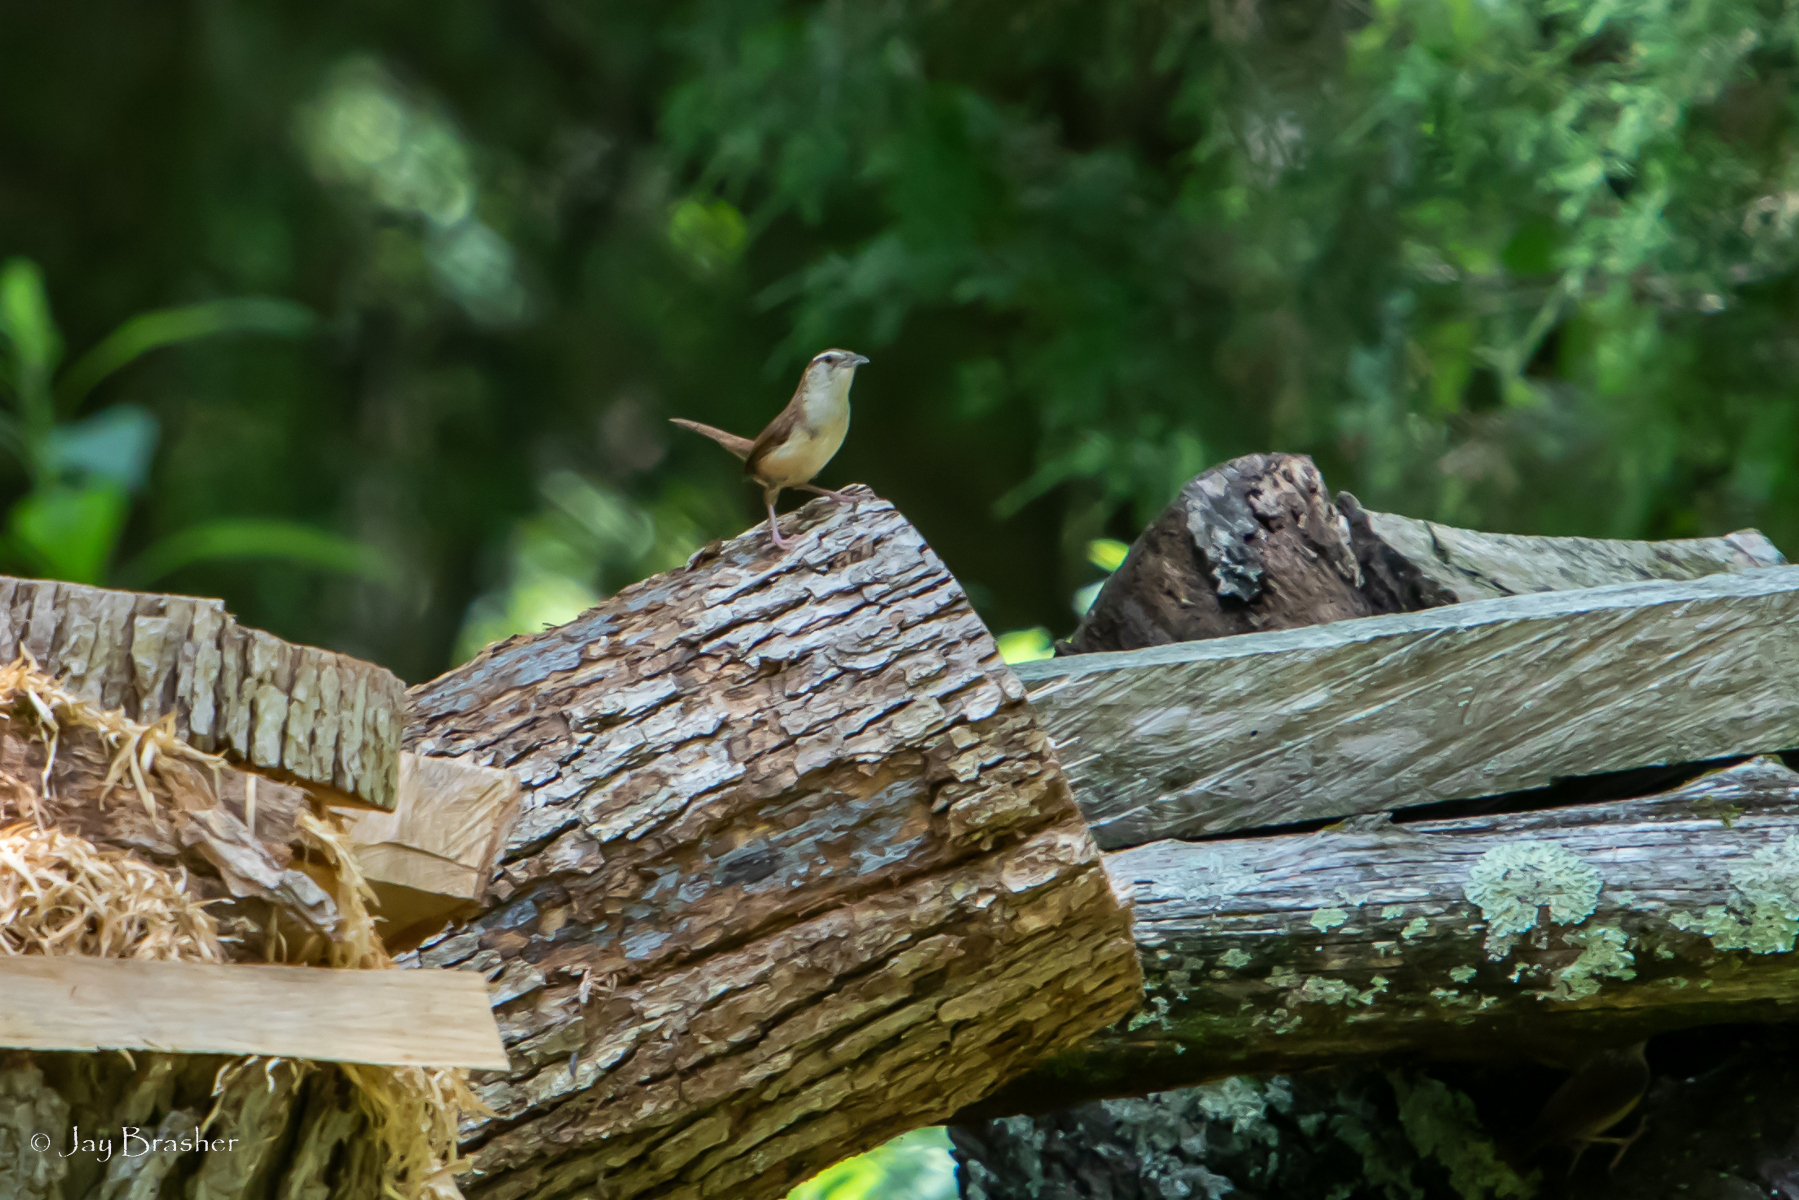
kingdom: Animalia
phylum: Chordata
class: Aves
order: Passeriformes
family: Troglodytidae
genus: Thryothorus
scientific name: Thryothorus ludovicianus
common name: Carolina wren
